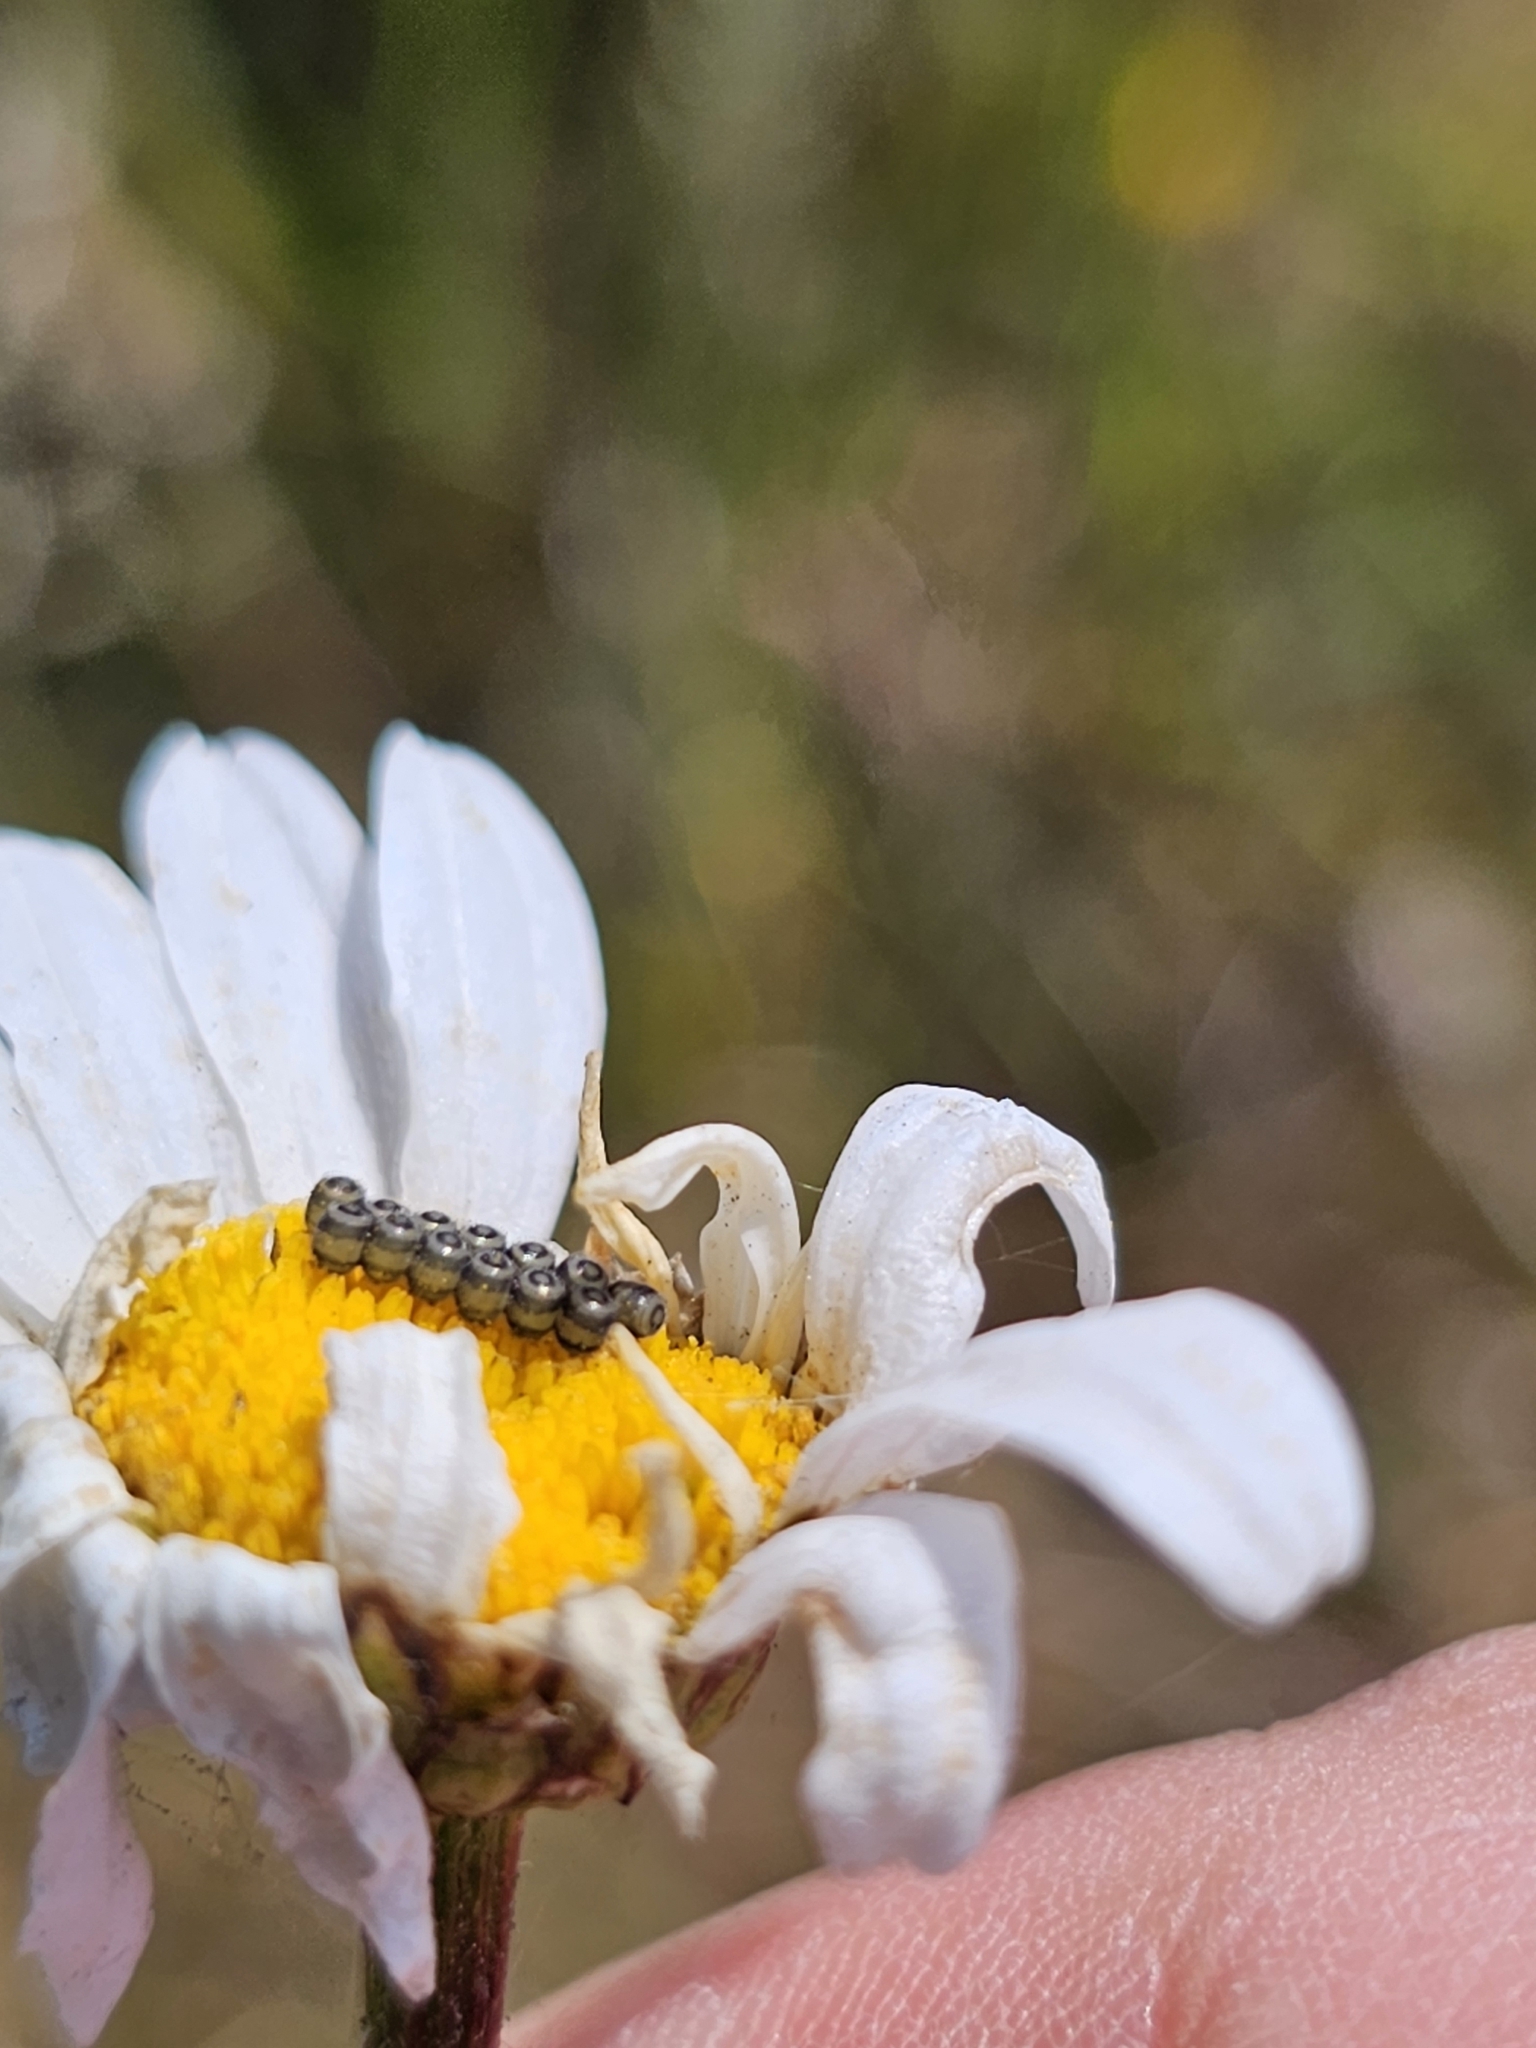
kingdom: Plantae
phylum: Tracheophyta
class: Magnoliopsida
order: Asterales
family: Asteraceae
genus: Leucanthemum
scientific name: Leucanthemum vulgare
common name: Oxeye daisy
